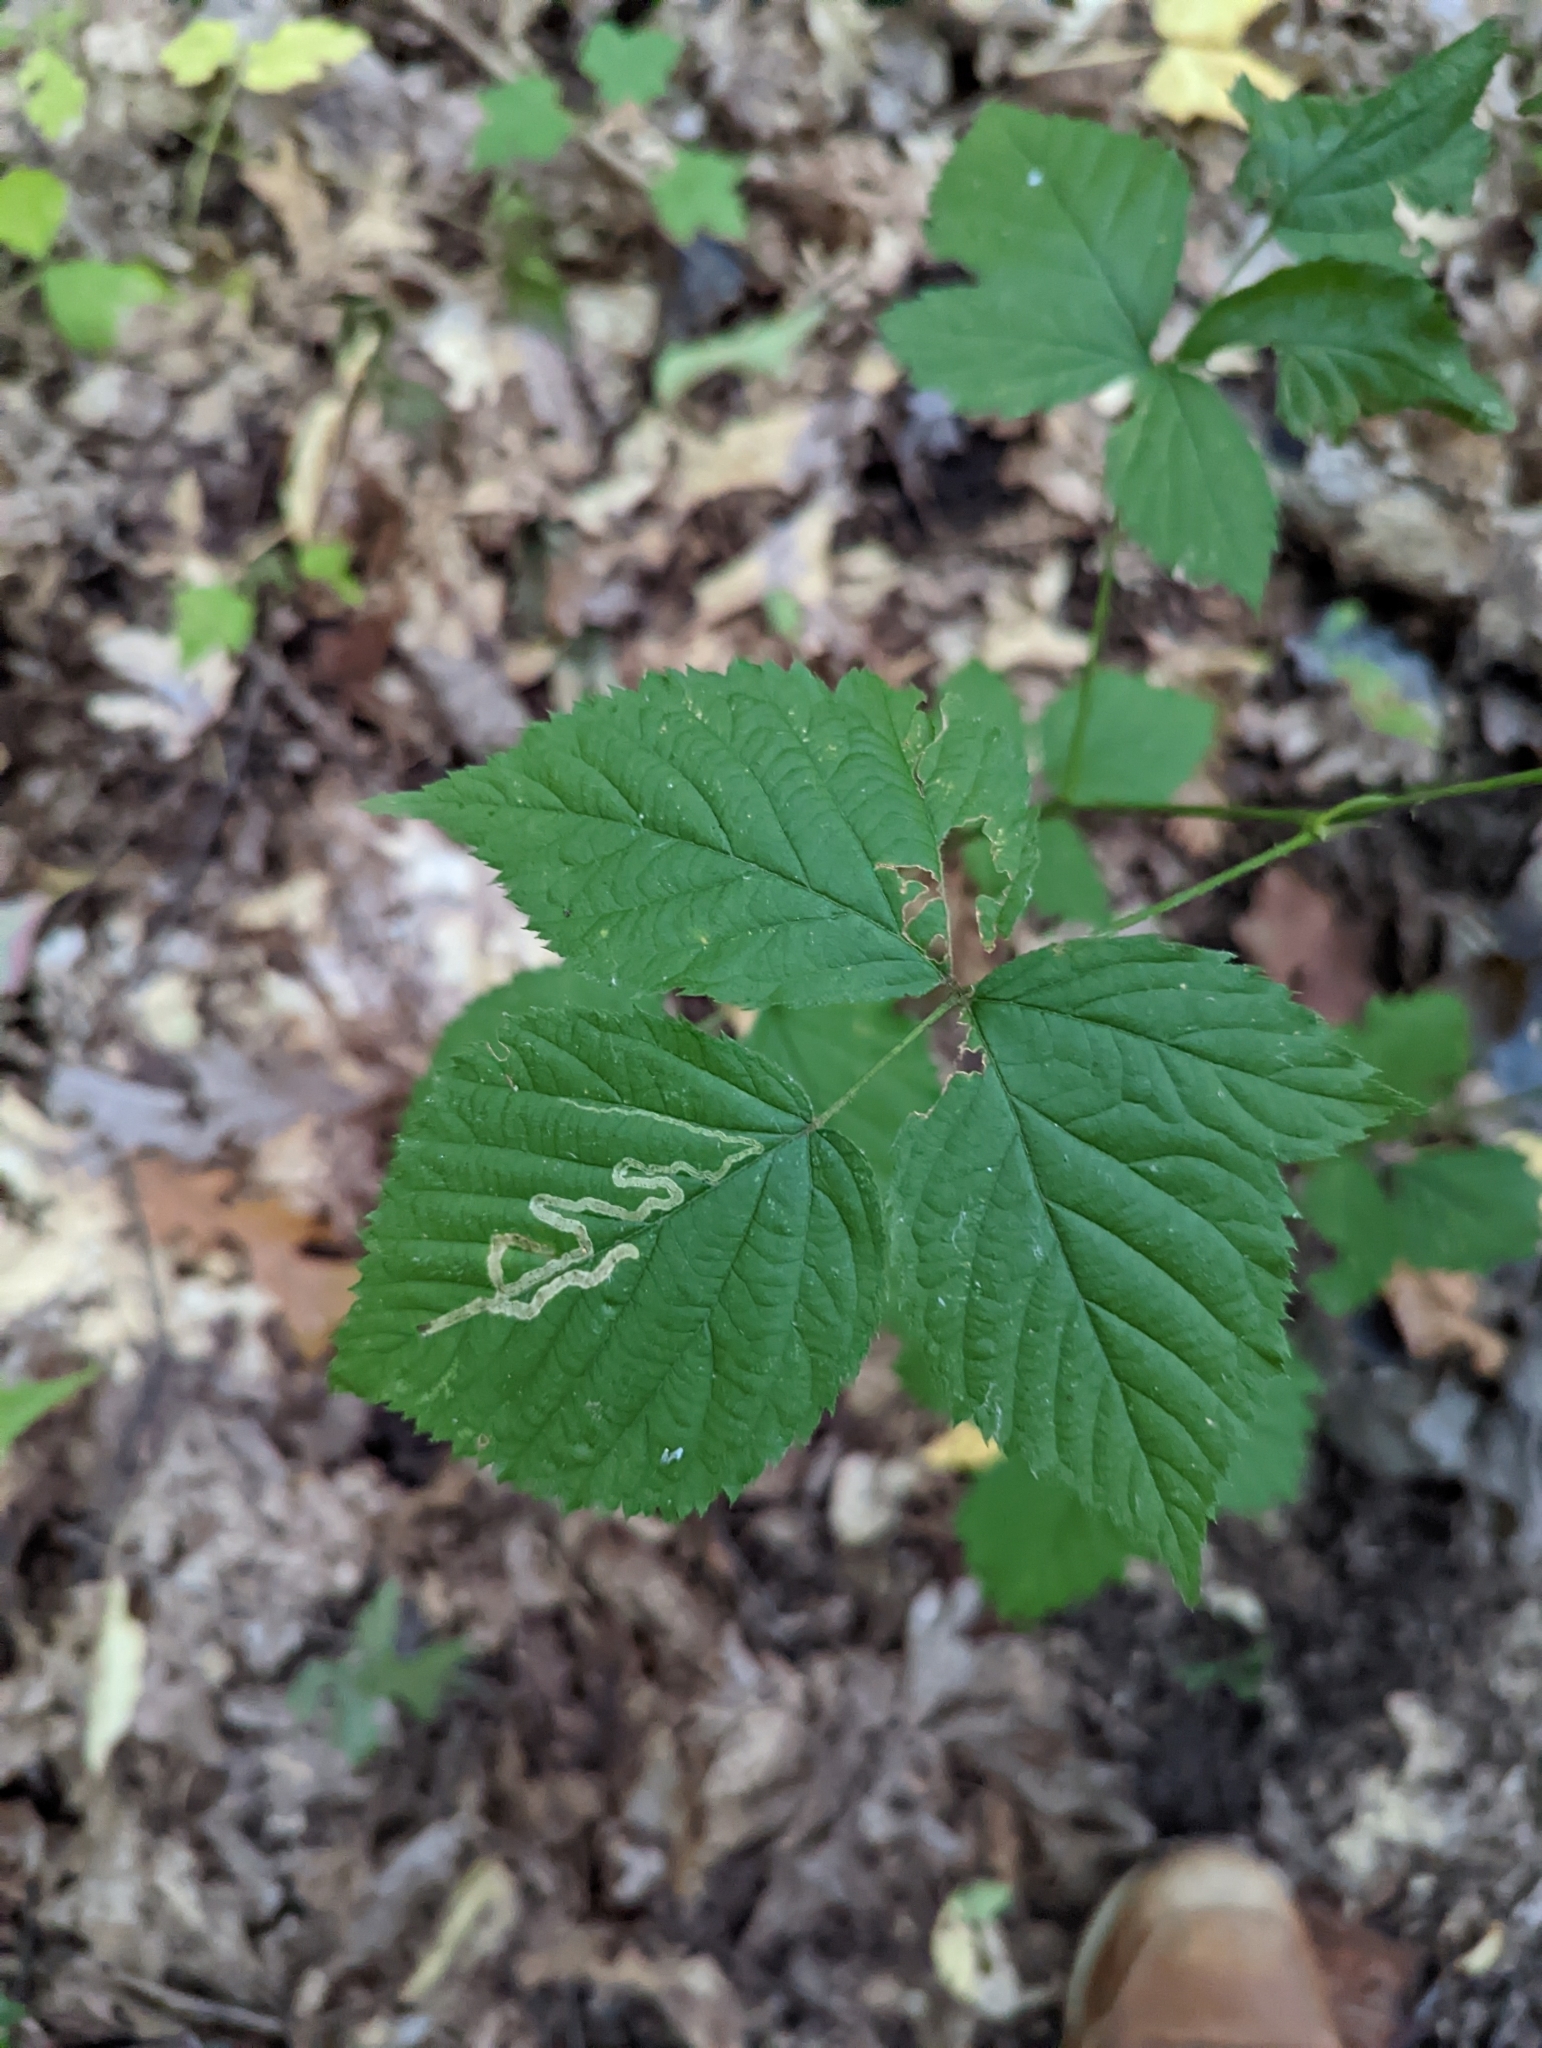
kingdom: Animalia
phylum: Arthropoda
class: Insecta
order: Diptera
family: Agromyzidae
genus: Agromyza
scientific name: Agromyza vockerothi
